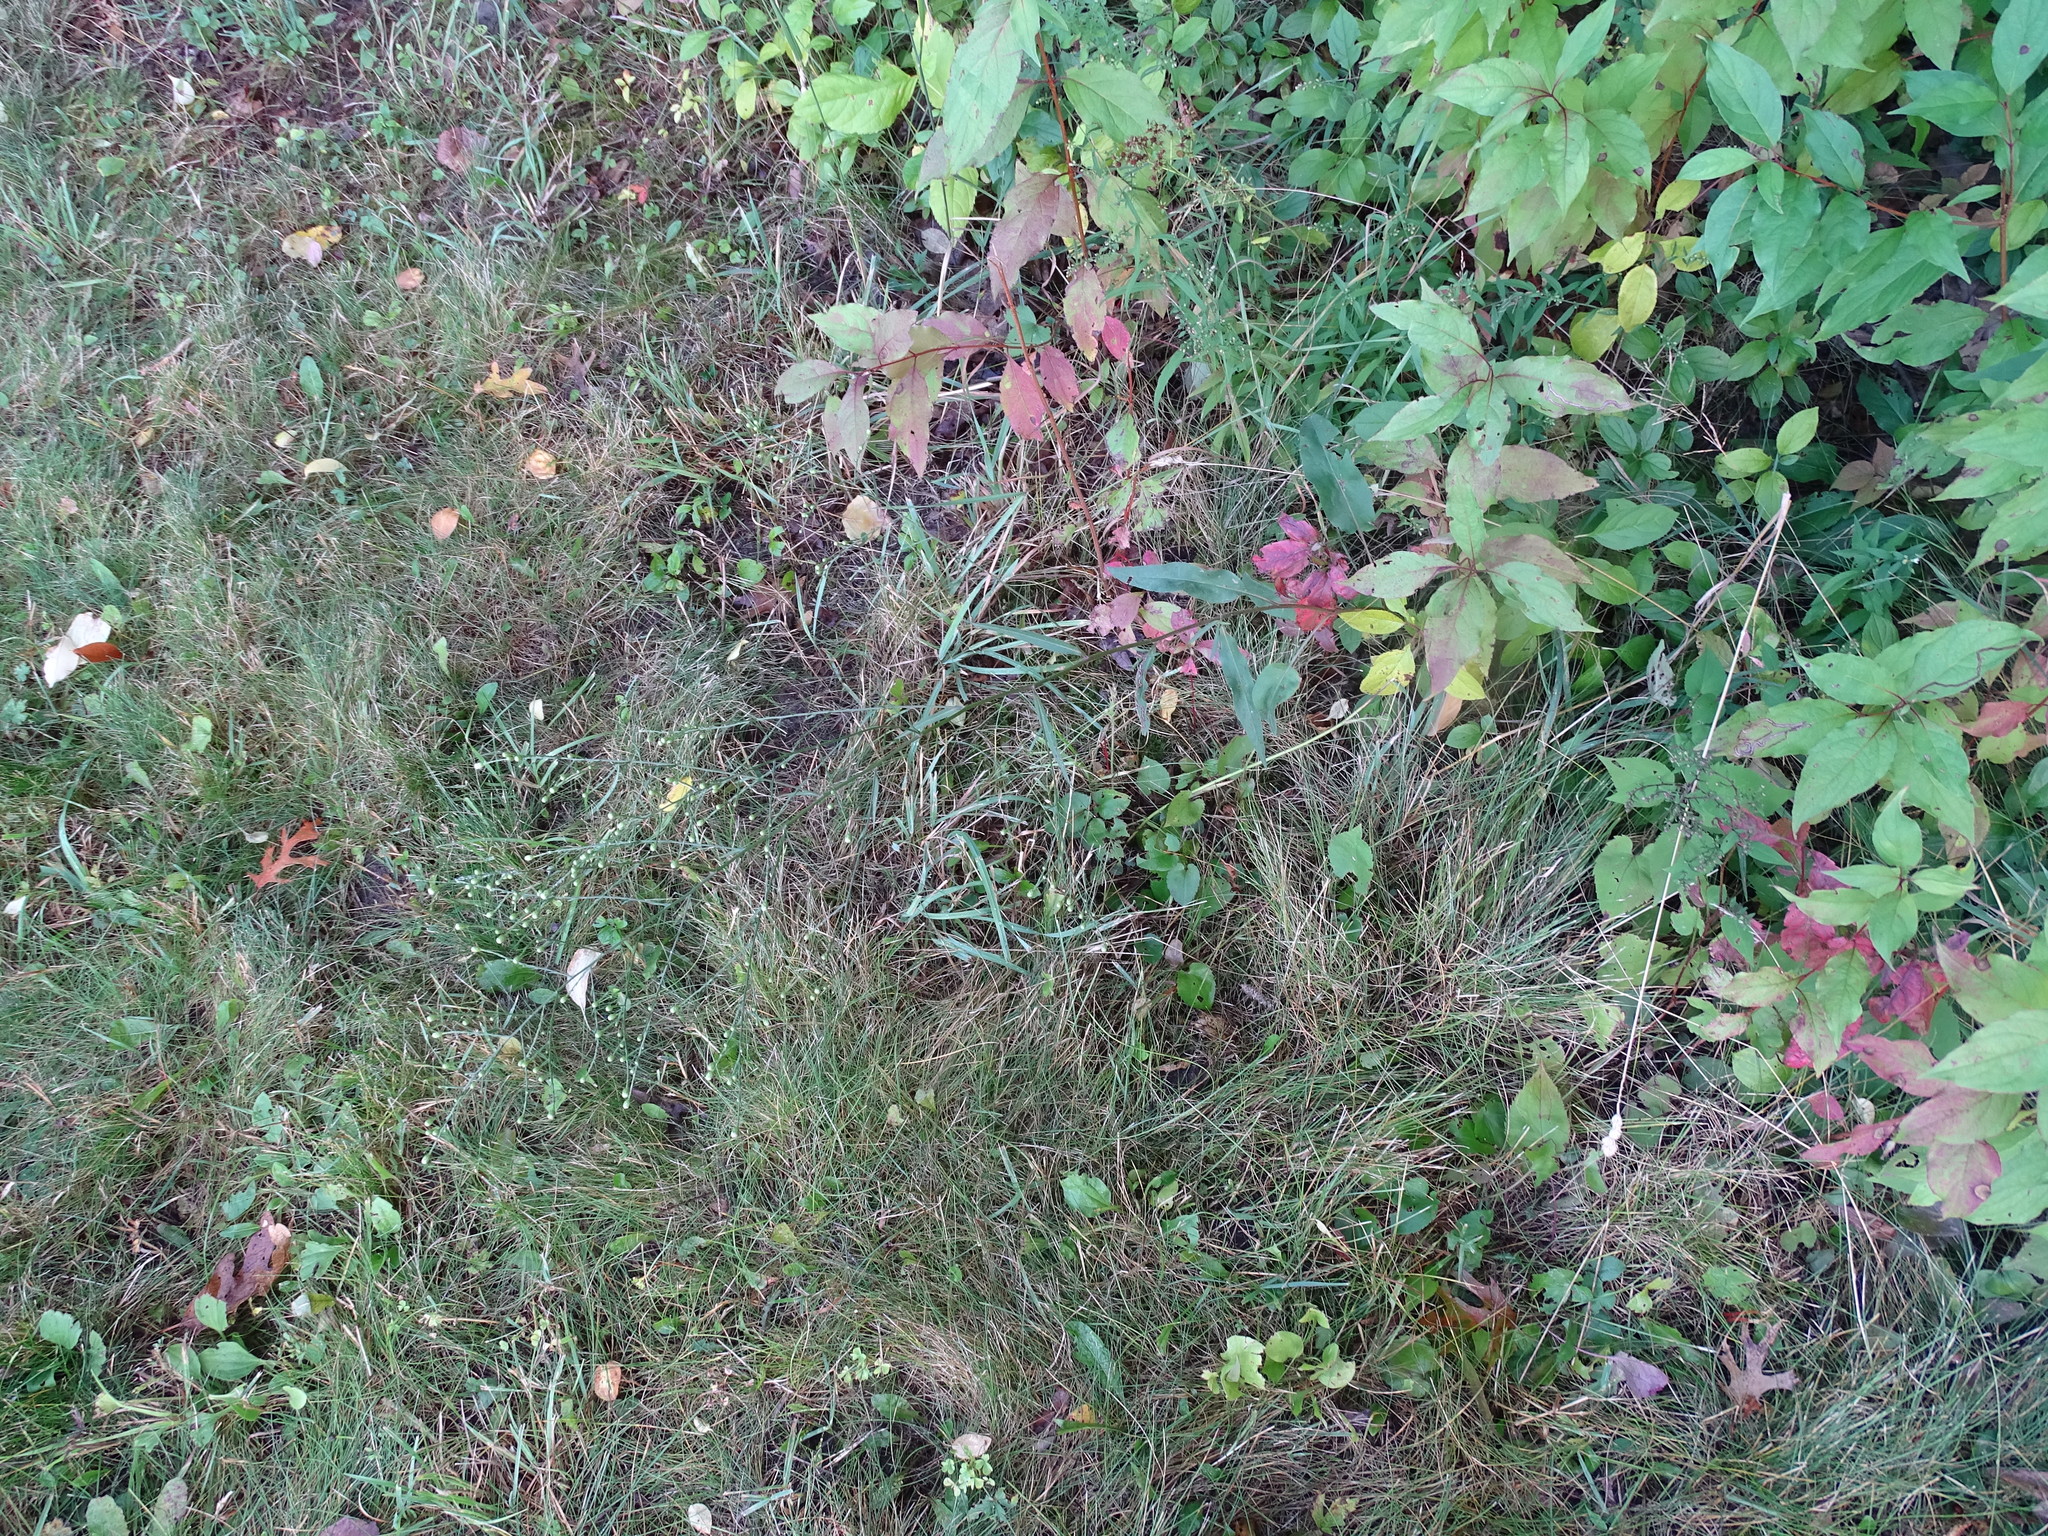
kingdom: Plantae
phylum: Tracheophyta
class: Magnoliopsida
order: Asterales
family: Asteraceae
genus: Symphyotrichum
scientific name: Symphyotrichum oolentangiense
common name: Azure aster
